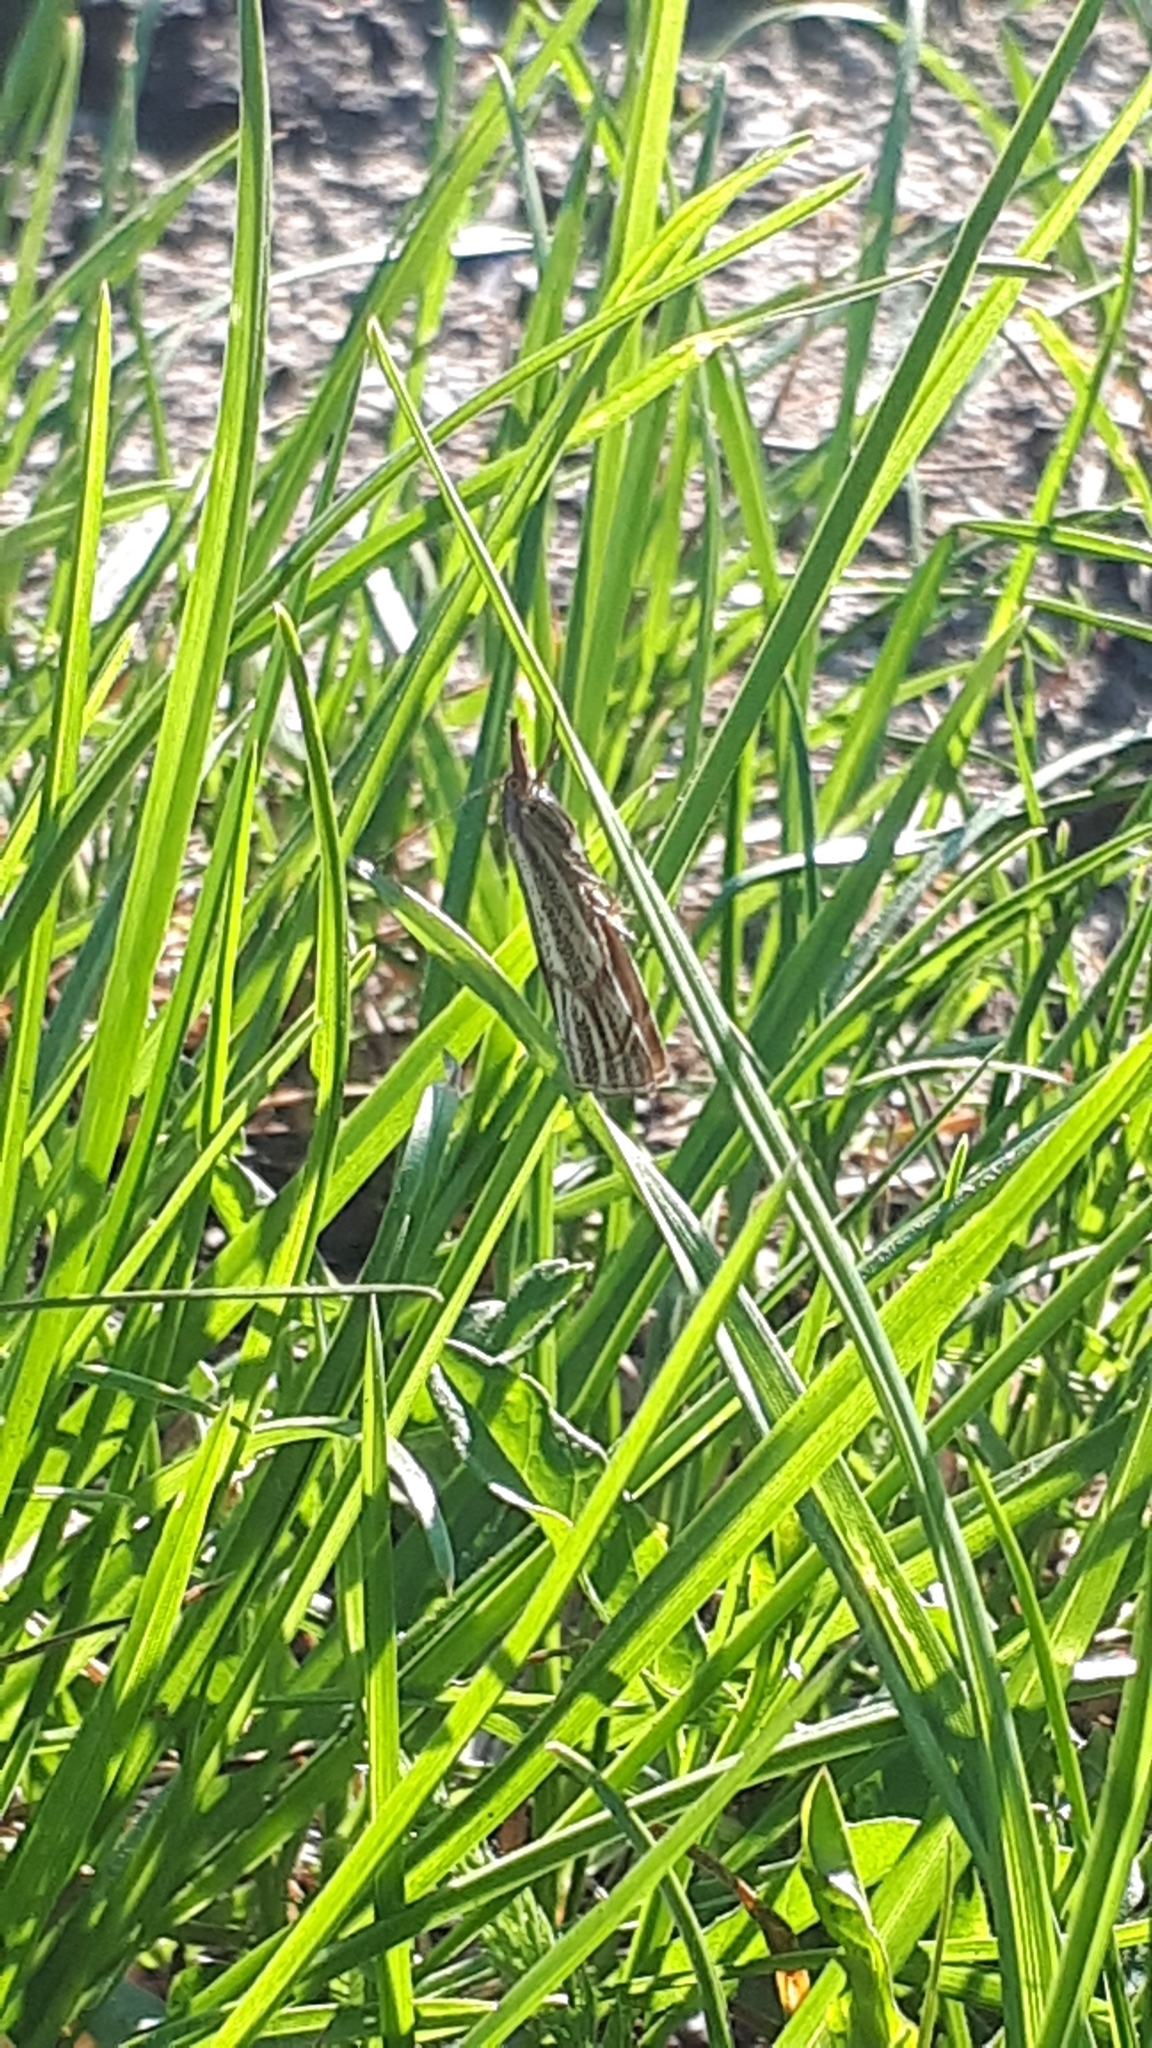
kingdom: Animalia
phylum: Arthropoda
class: Insecta
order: Lepidoptera
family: Crambidae
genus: Chrysoteuchia
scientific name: Chrysoteuchia culmella
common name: Garden grass-veneer
